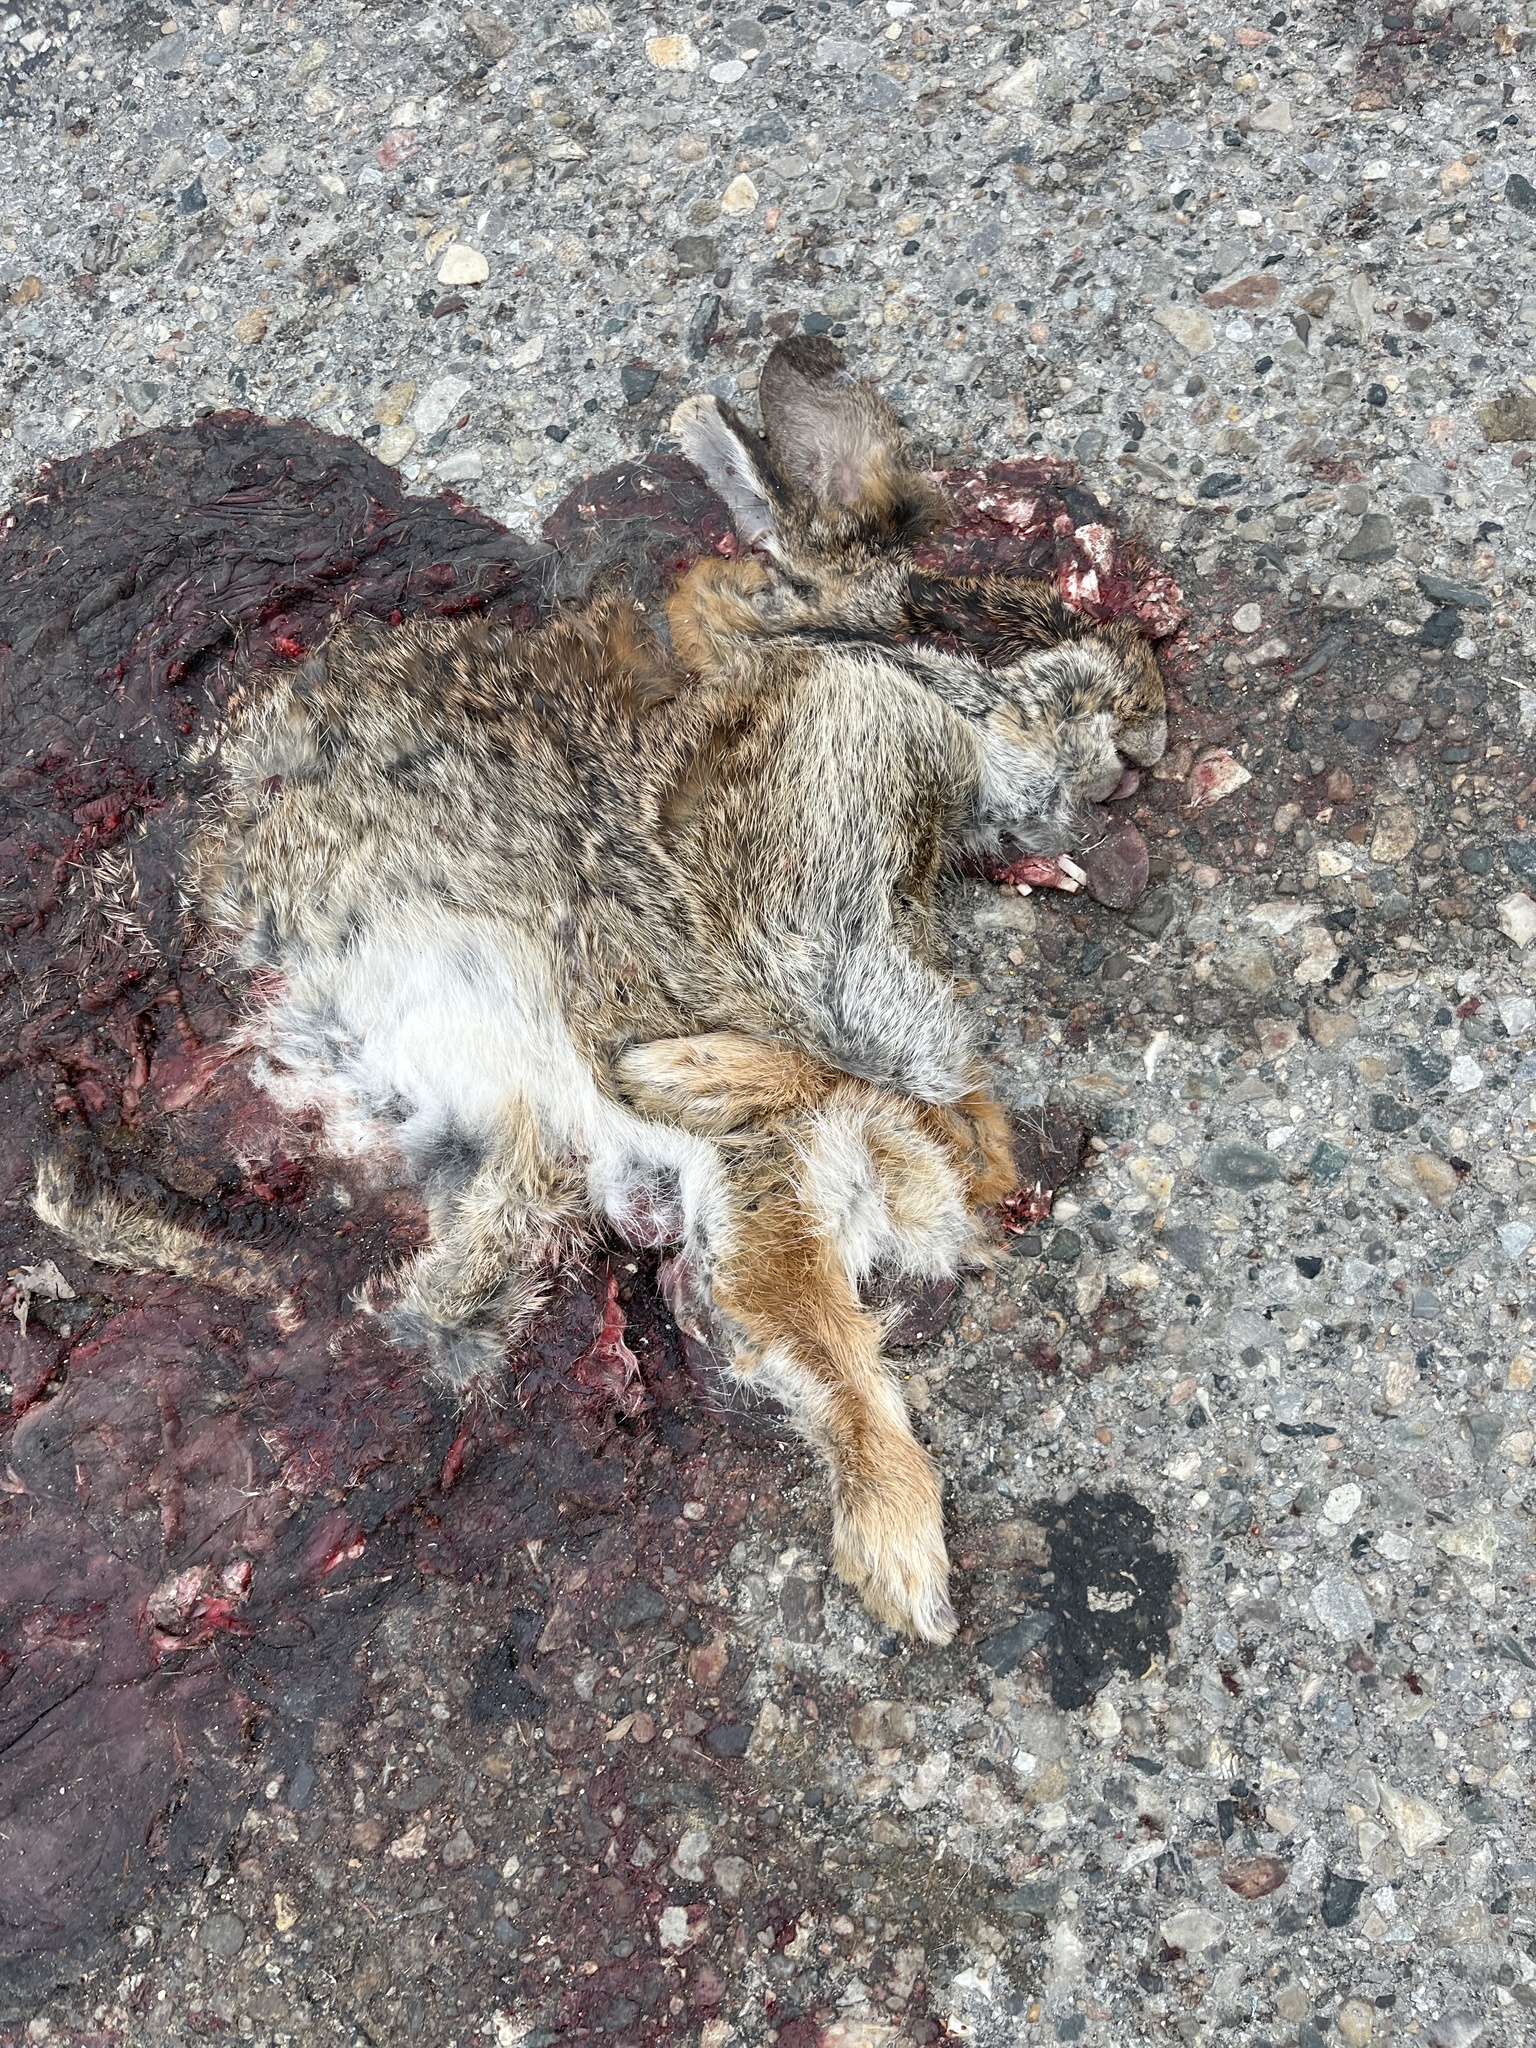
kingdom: Animalia
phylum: Chordata
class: Mammalia
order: Lagomorpha
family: Leporidae
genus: Sylvilagus
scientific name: Sylvilagus floridanus
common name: Eastern cottontail
